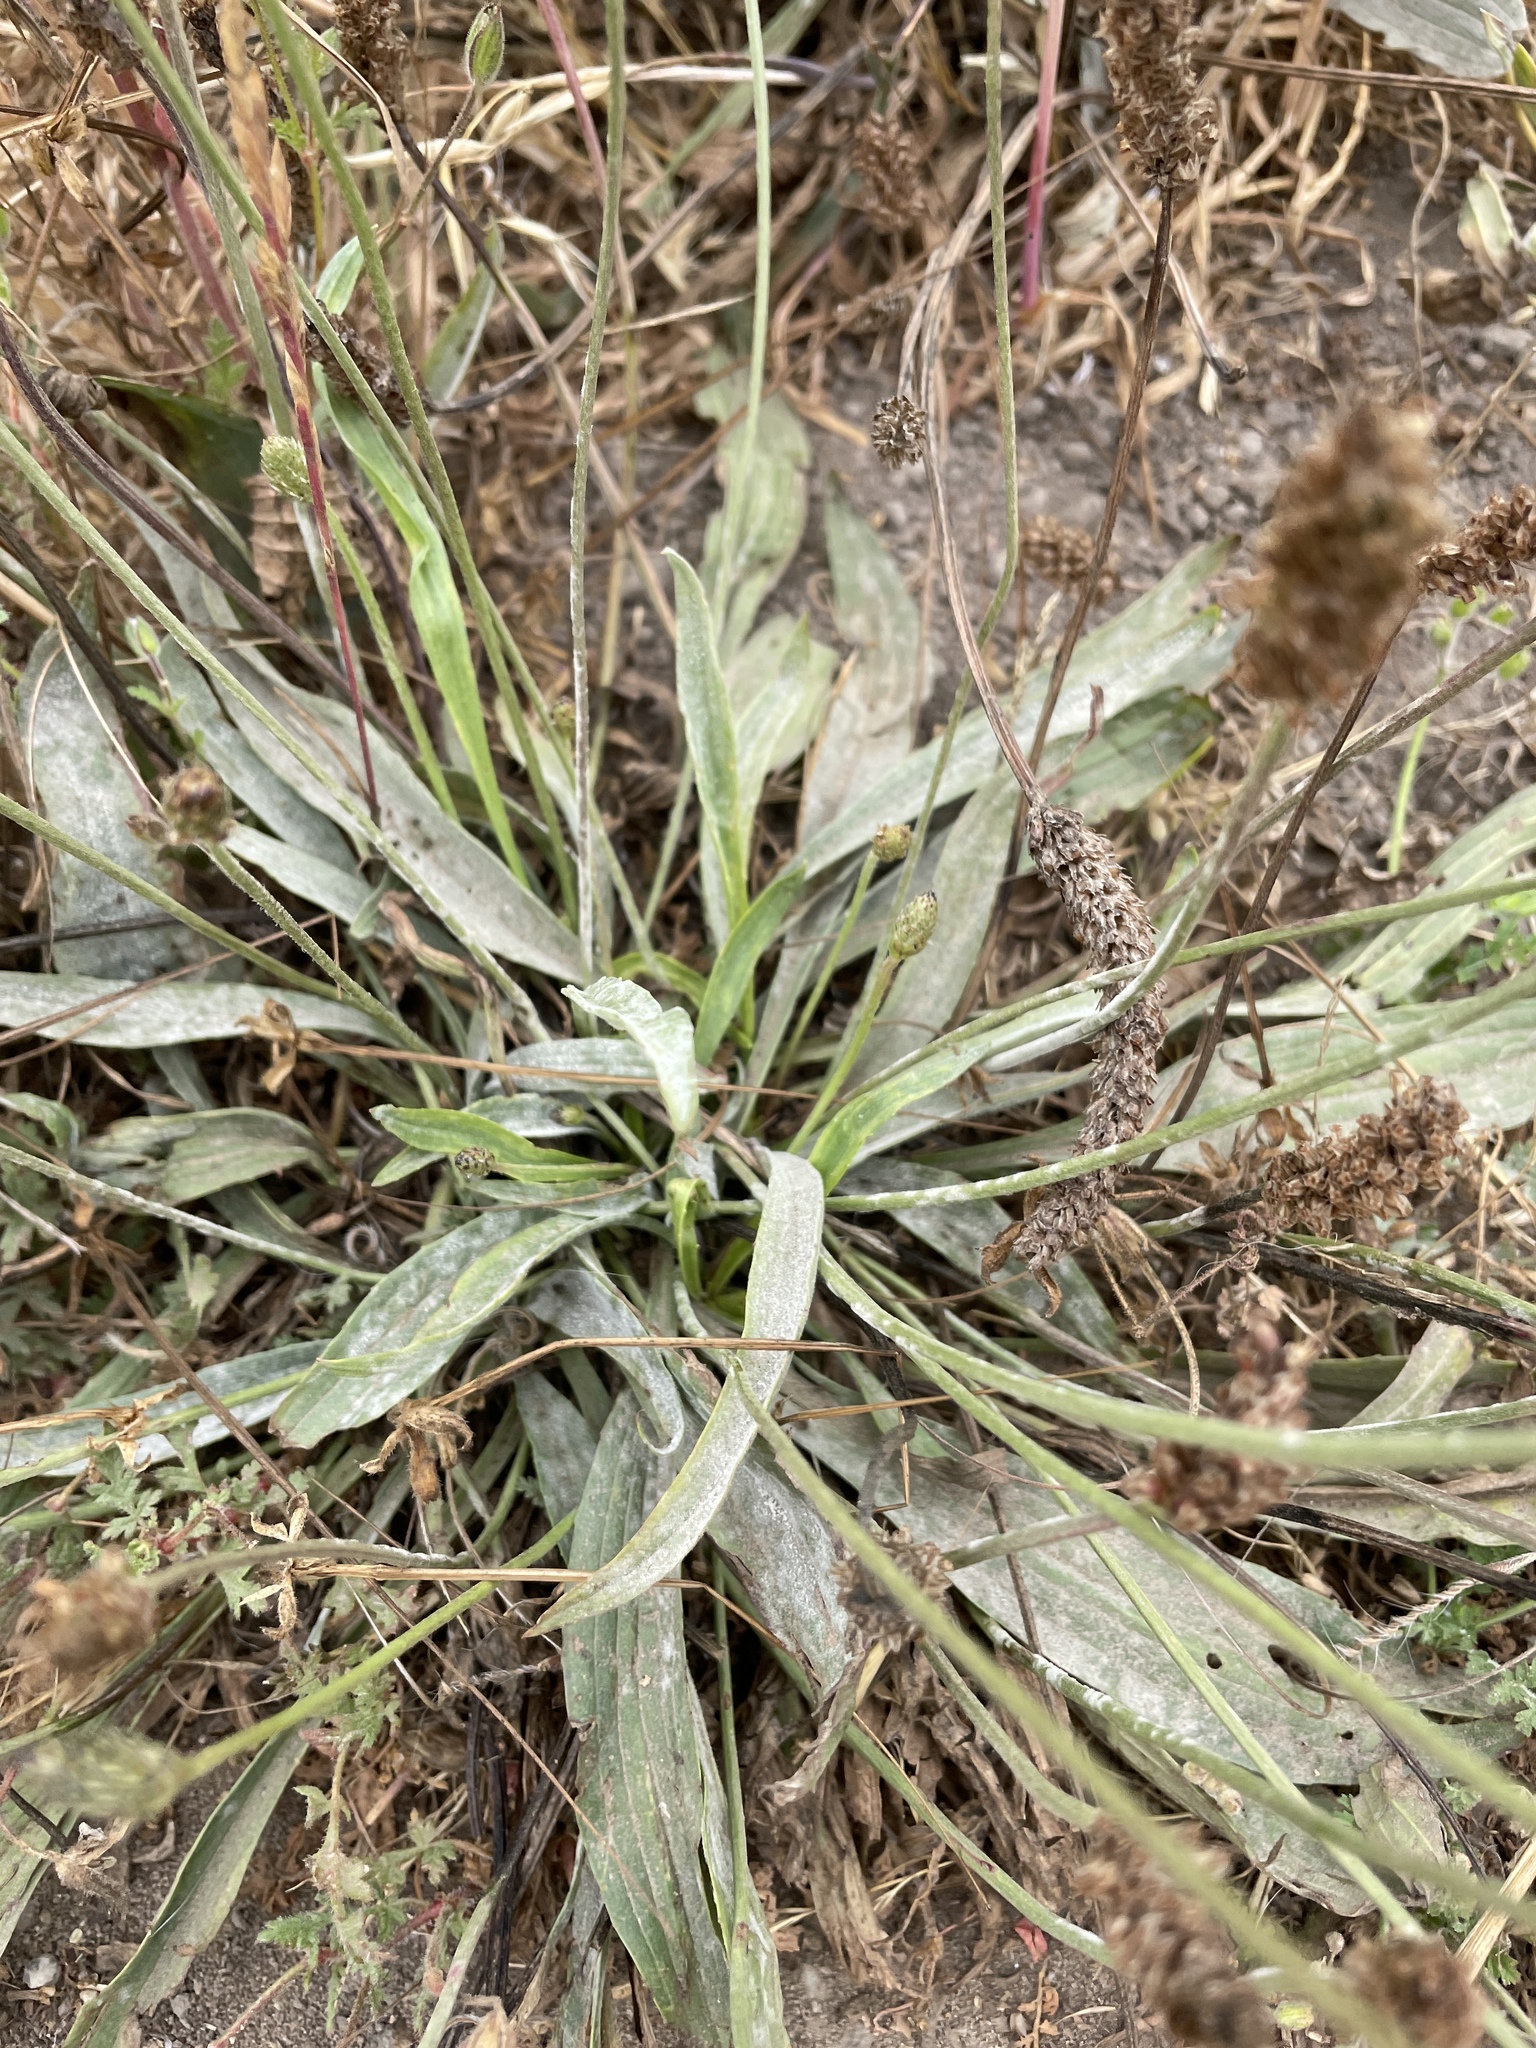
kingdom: Plantae
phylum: Tracheophyta
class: Magnoliopsida
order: Lamiales
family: Plantaginaceae
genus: Plantago
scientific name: Plantago lanceolata
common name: Ribwort plantain
